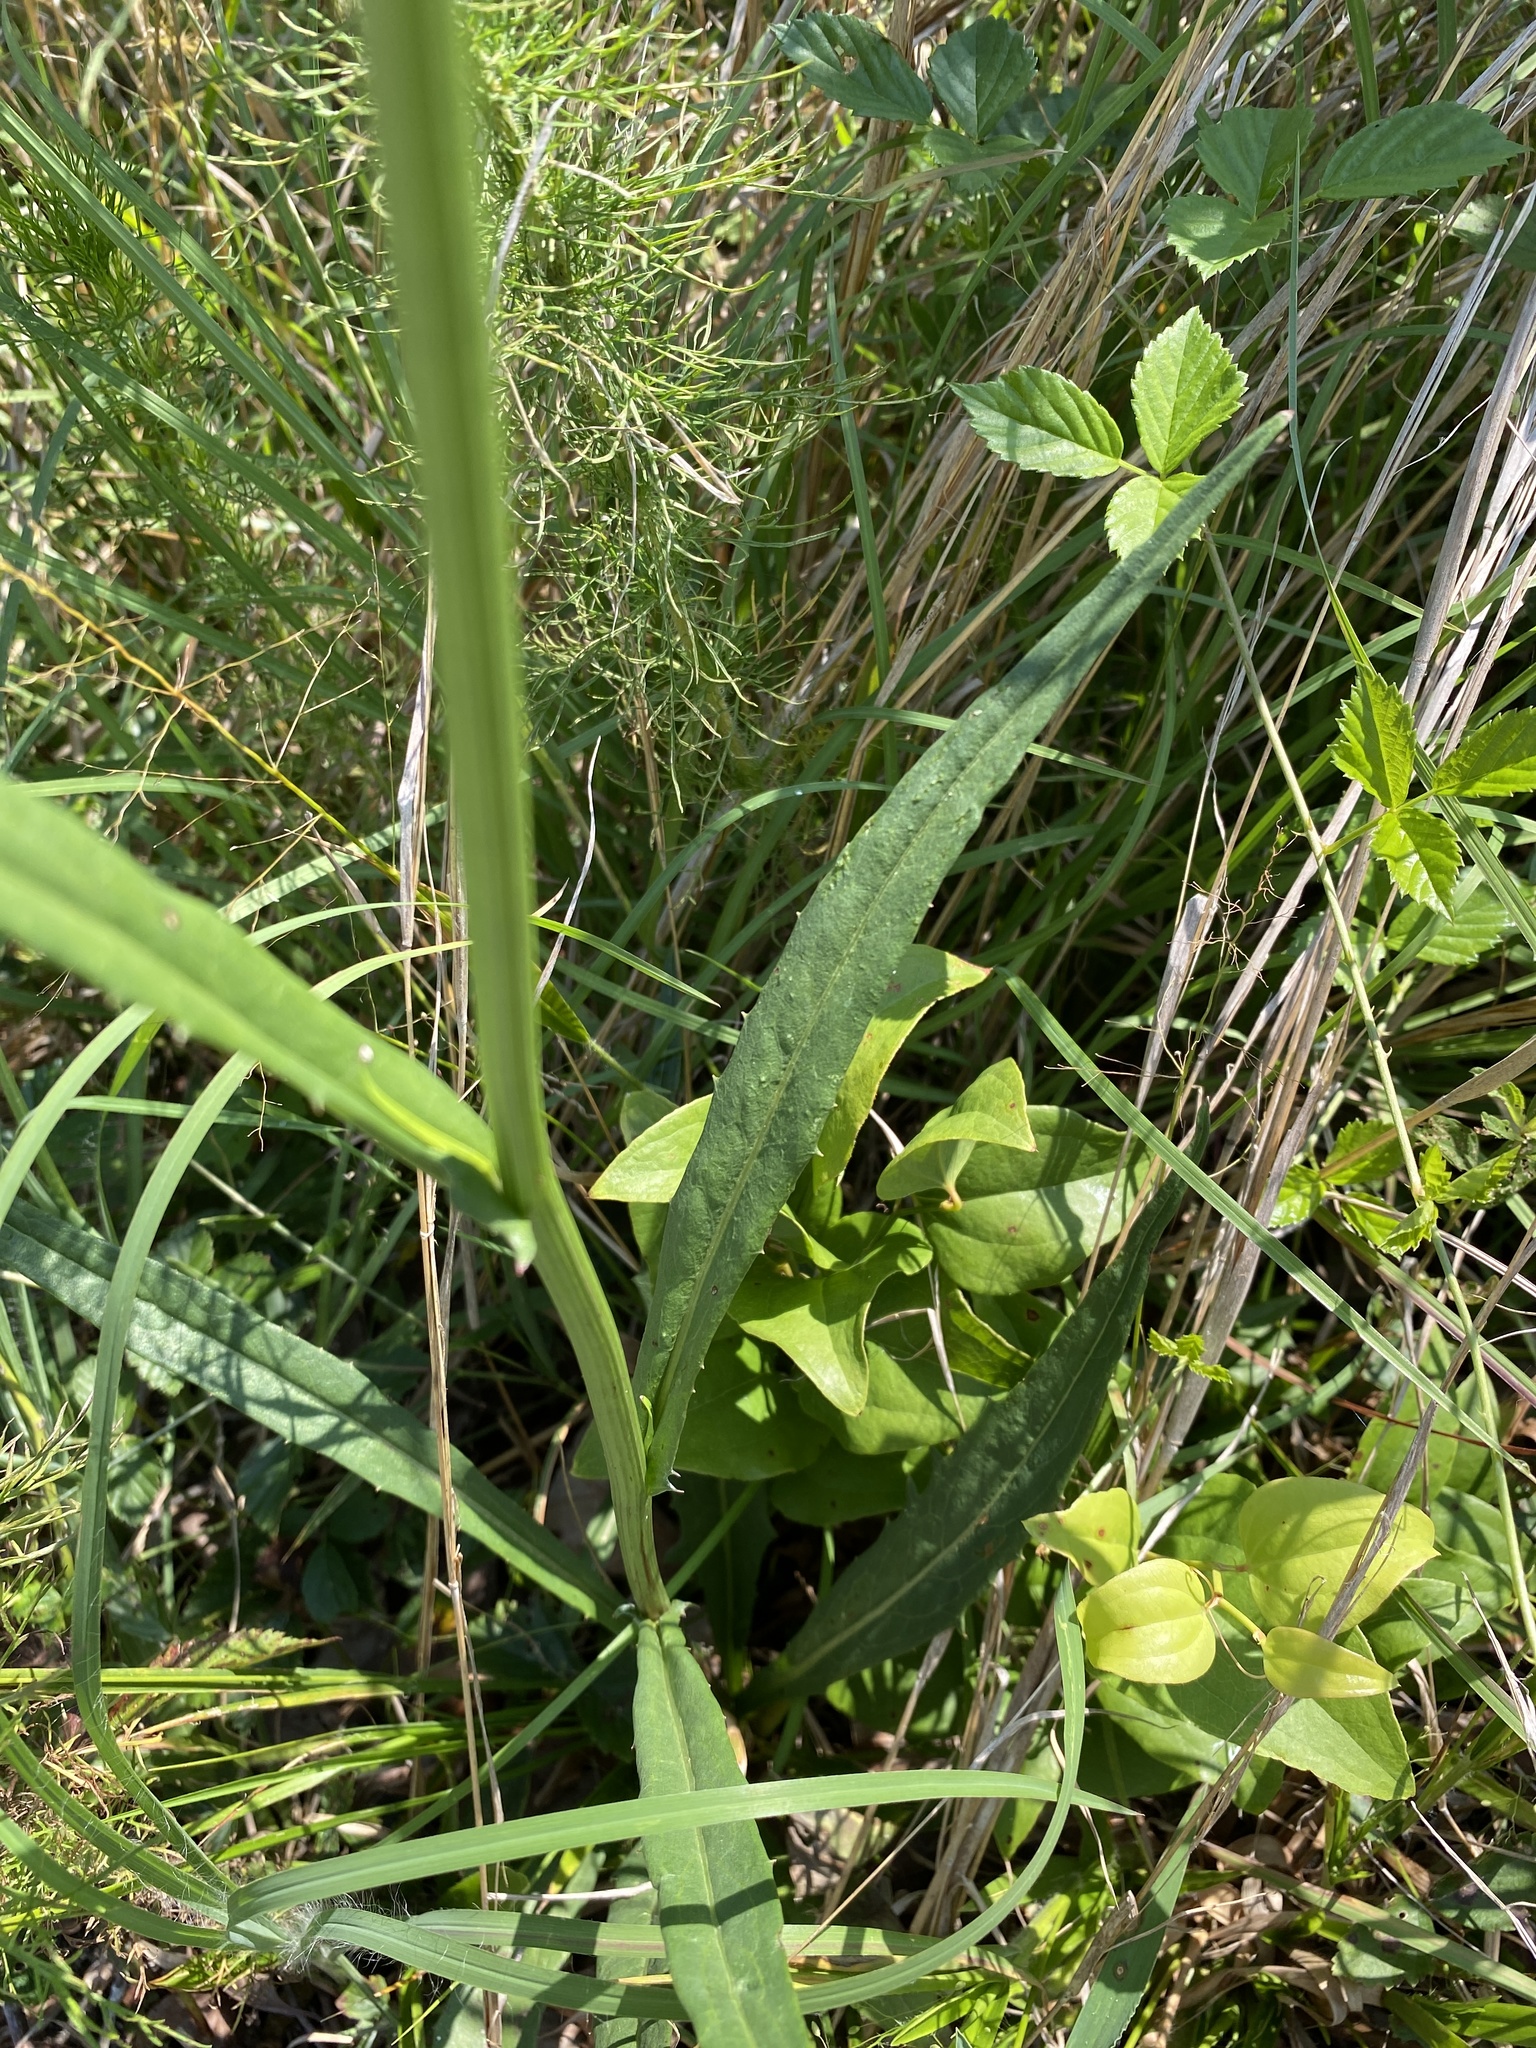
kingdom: Plantae
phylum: Tracheophyta
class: Magnoliopsida
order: Asterales
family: Asteraceae
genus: Pyrrhopappus
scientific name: Pyrrhopappus carolinianus
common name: Carolina desert-chicory
